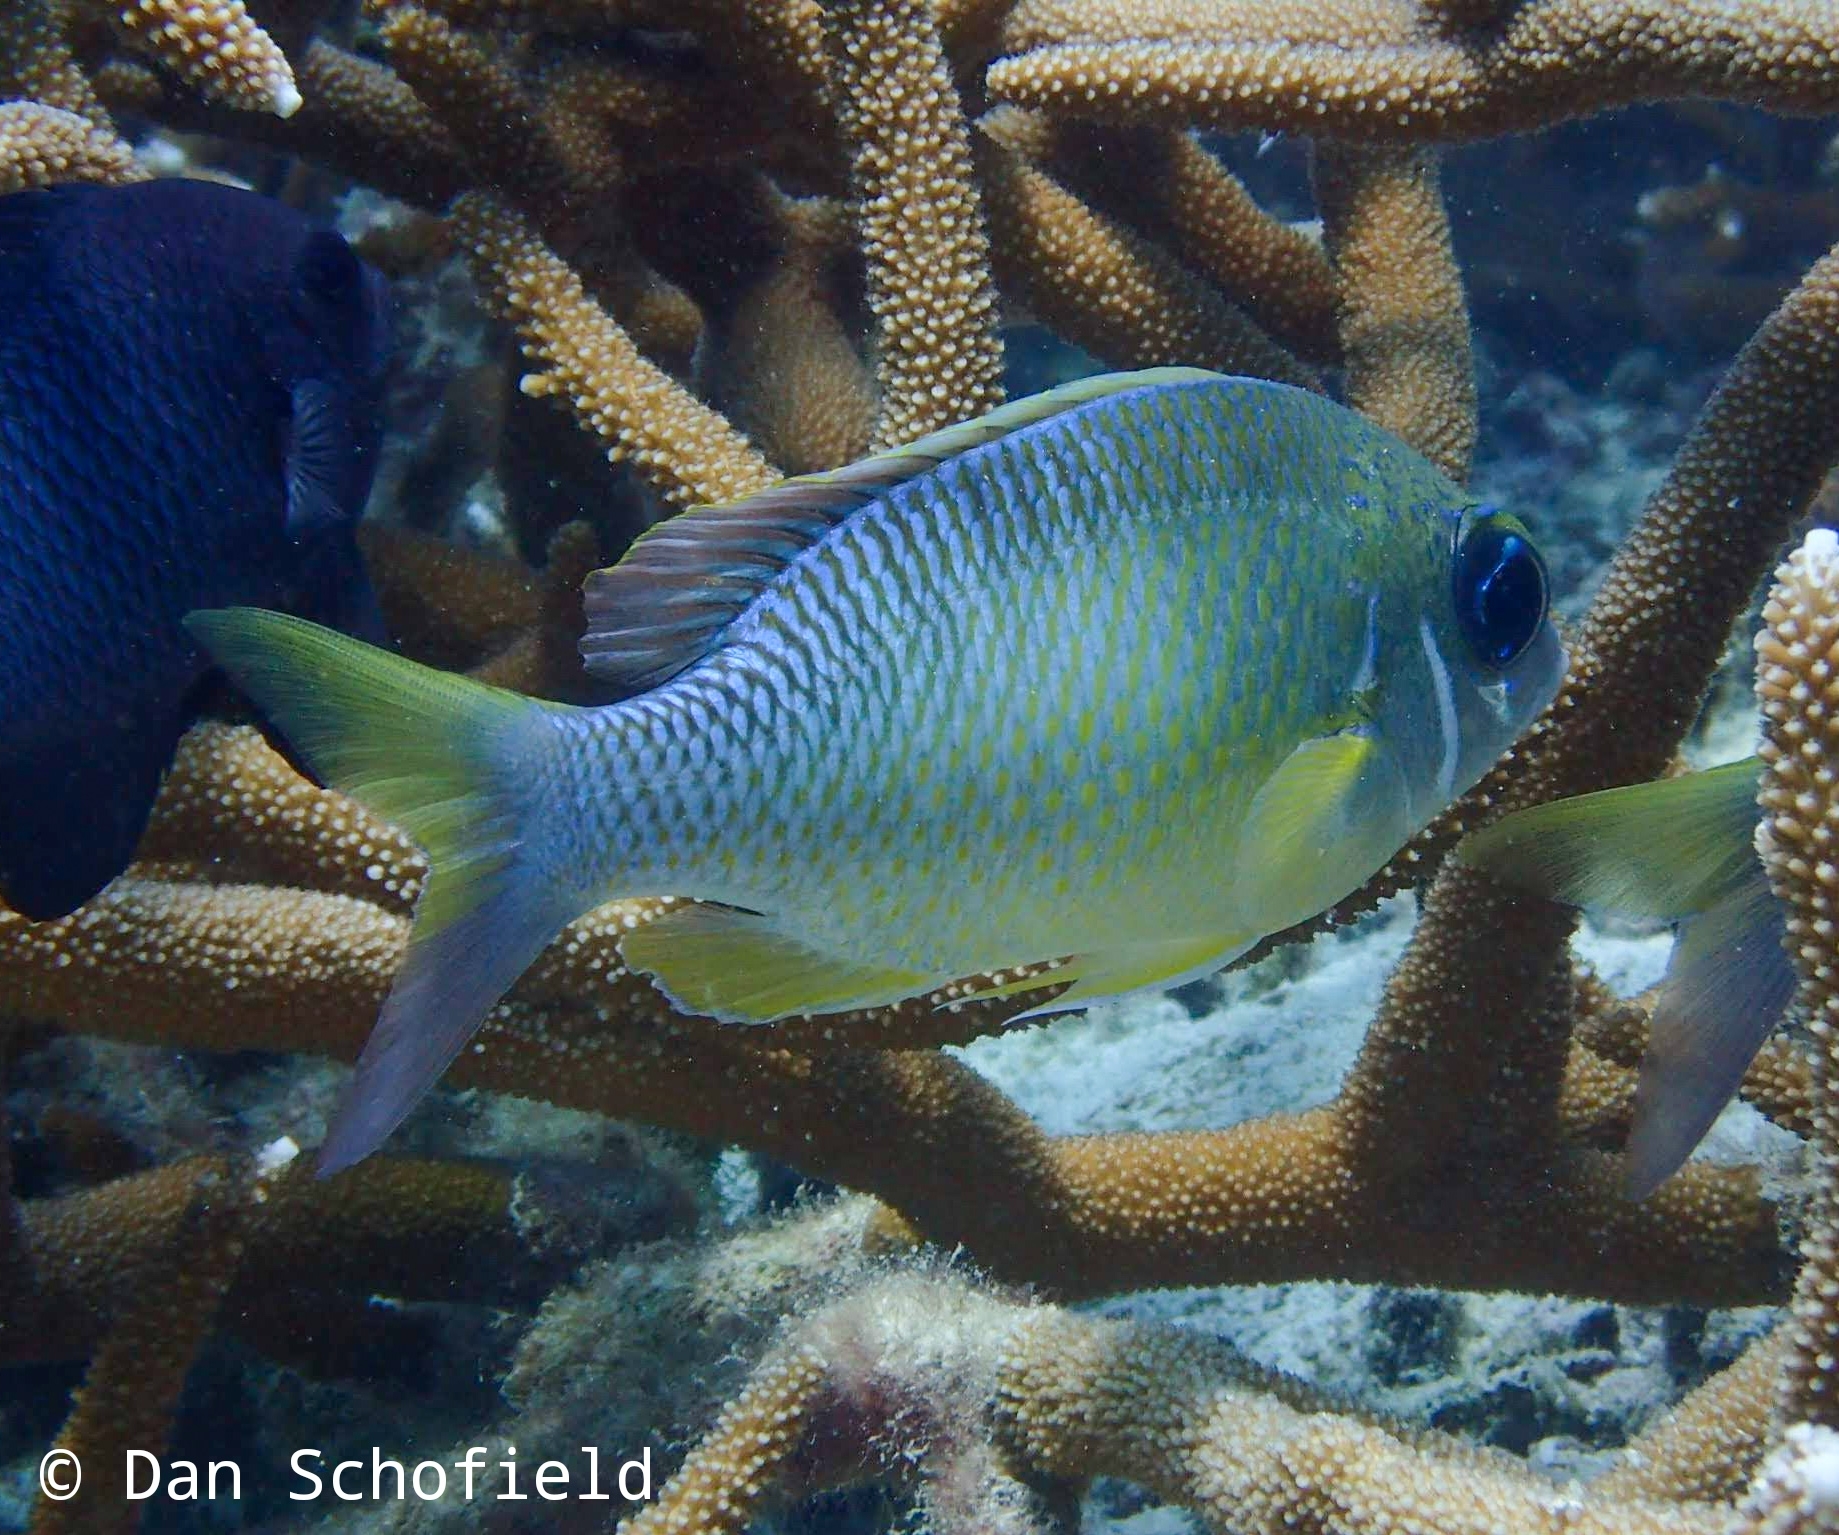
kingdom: Animalia
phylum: Chordata
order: Perciformes
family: Nemipteridae
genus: Scolopsis
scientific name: Scolopsis margaritifera
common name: Pearly monocle bream
